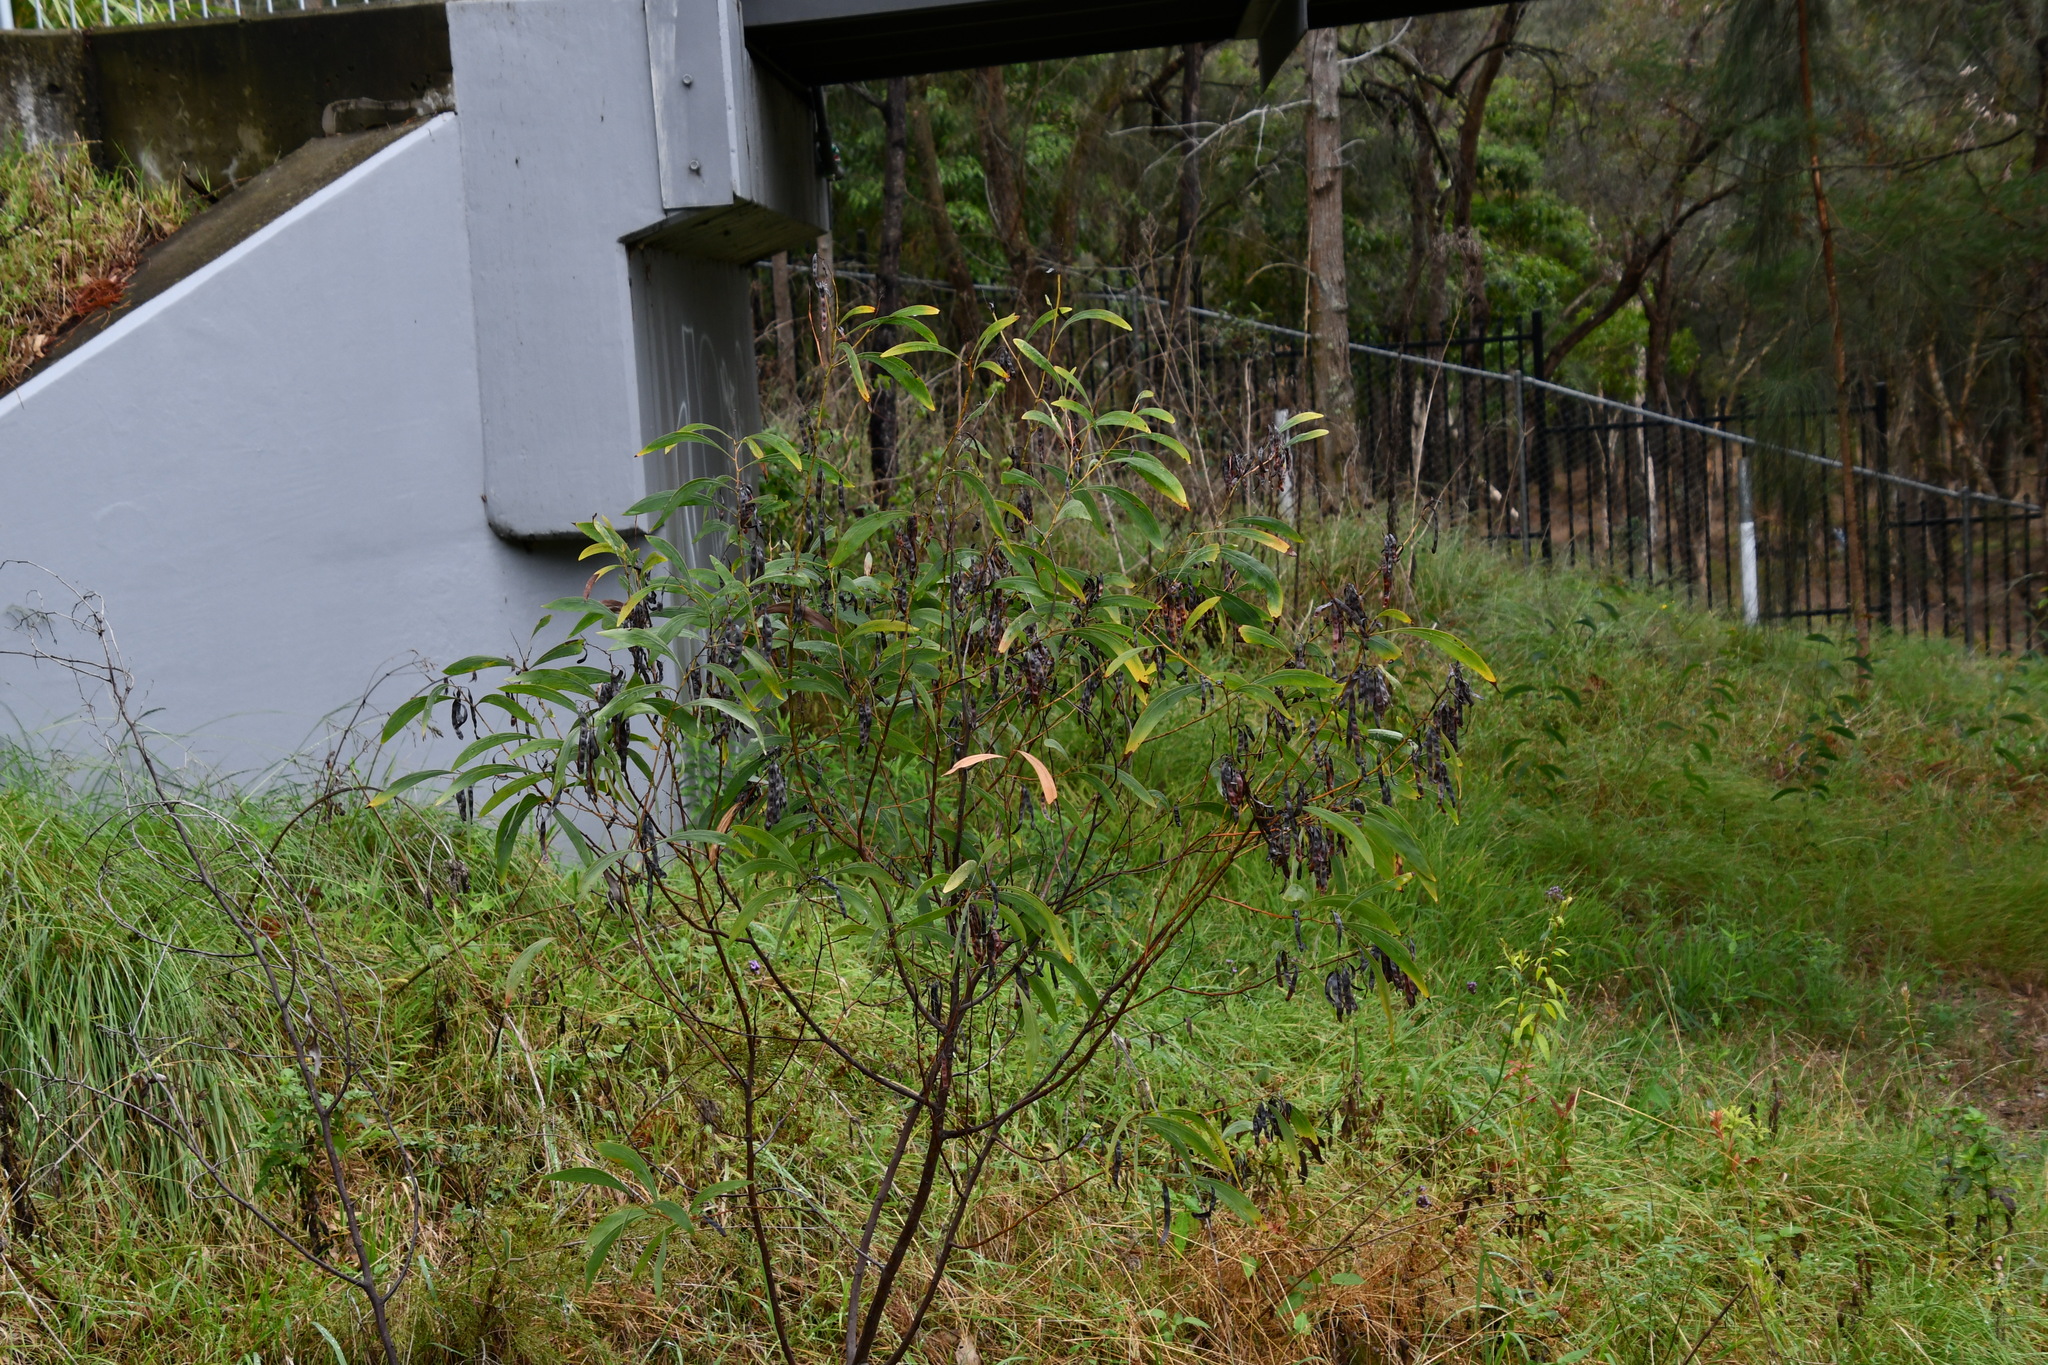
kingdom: Plantae
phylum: Tracheophyta
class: Magnoliopsida
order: Fabales
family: Fabaceae
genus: Acacia
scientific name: Acacia falcata
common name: Burra acacia
